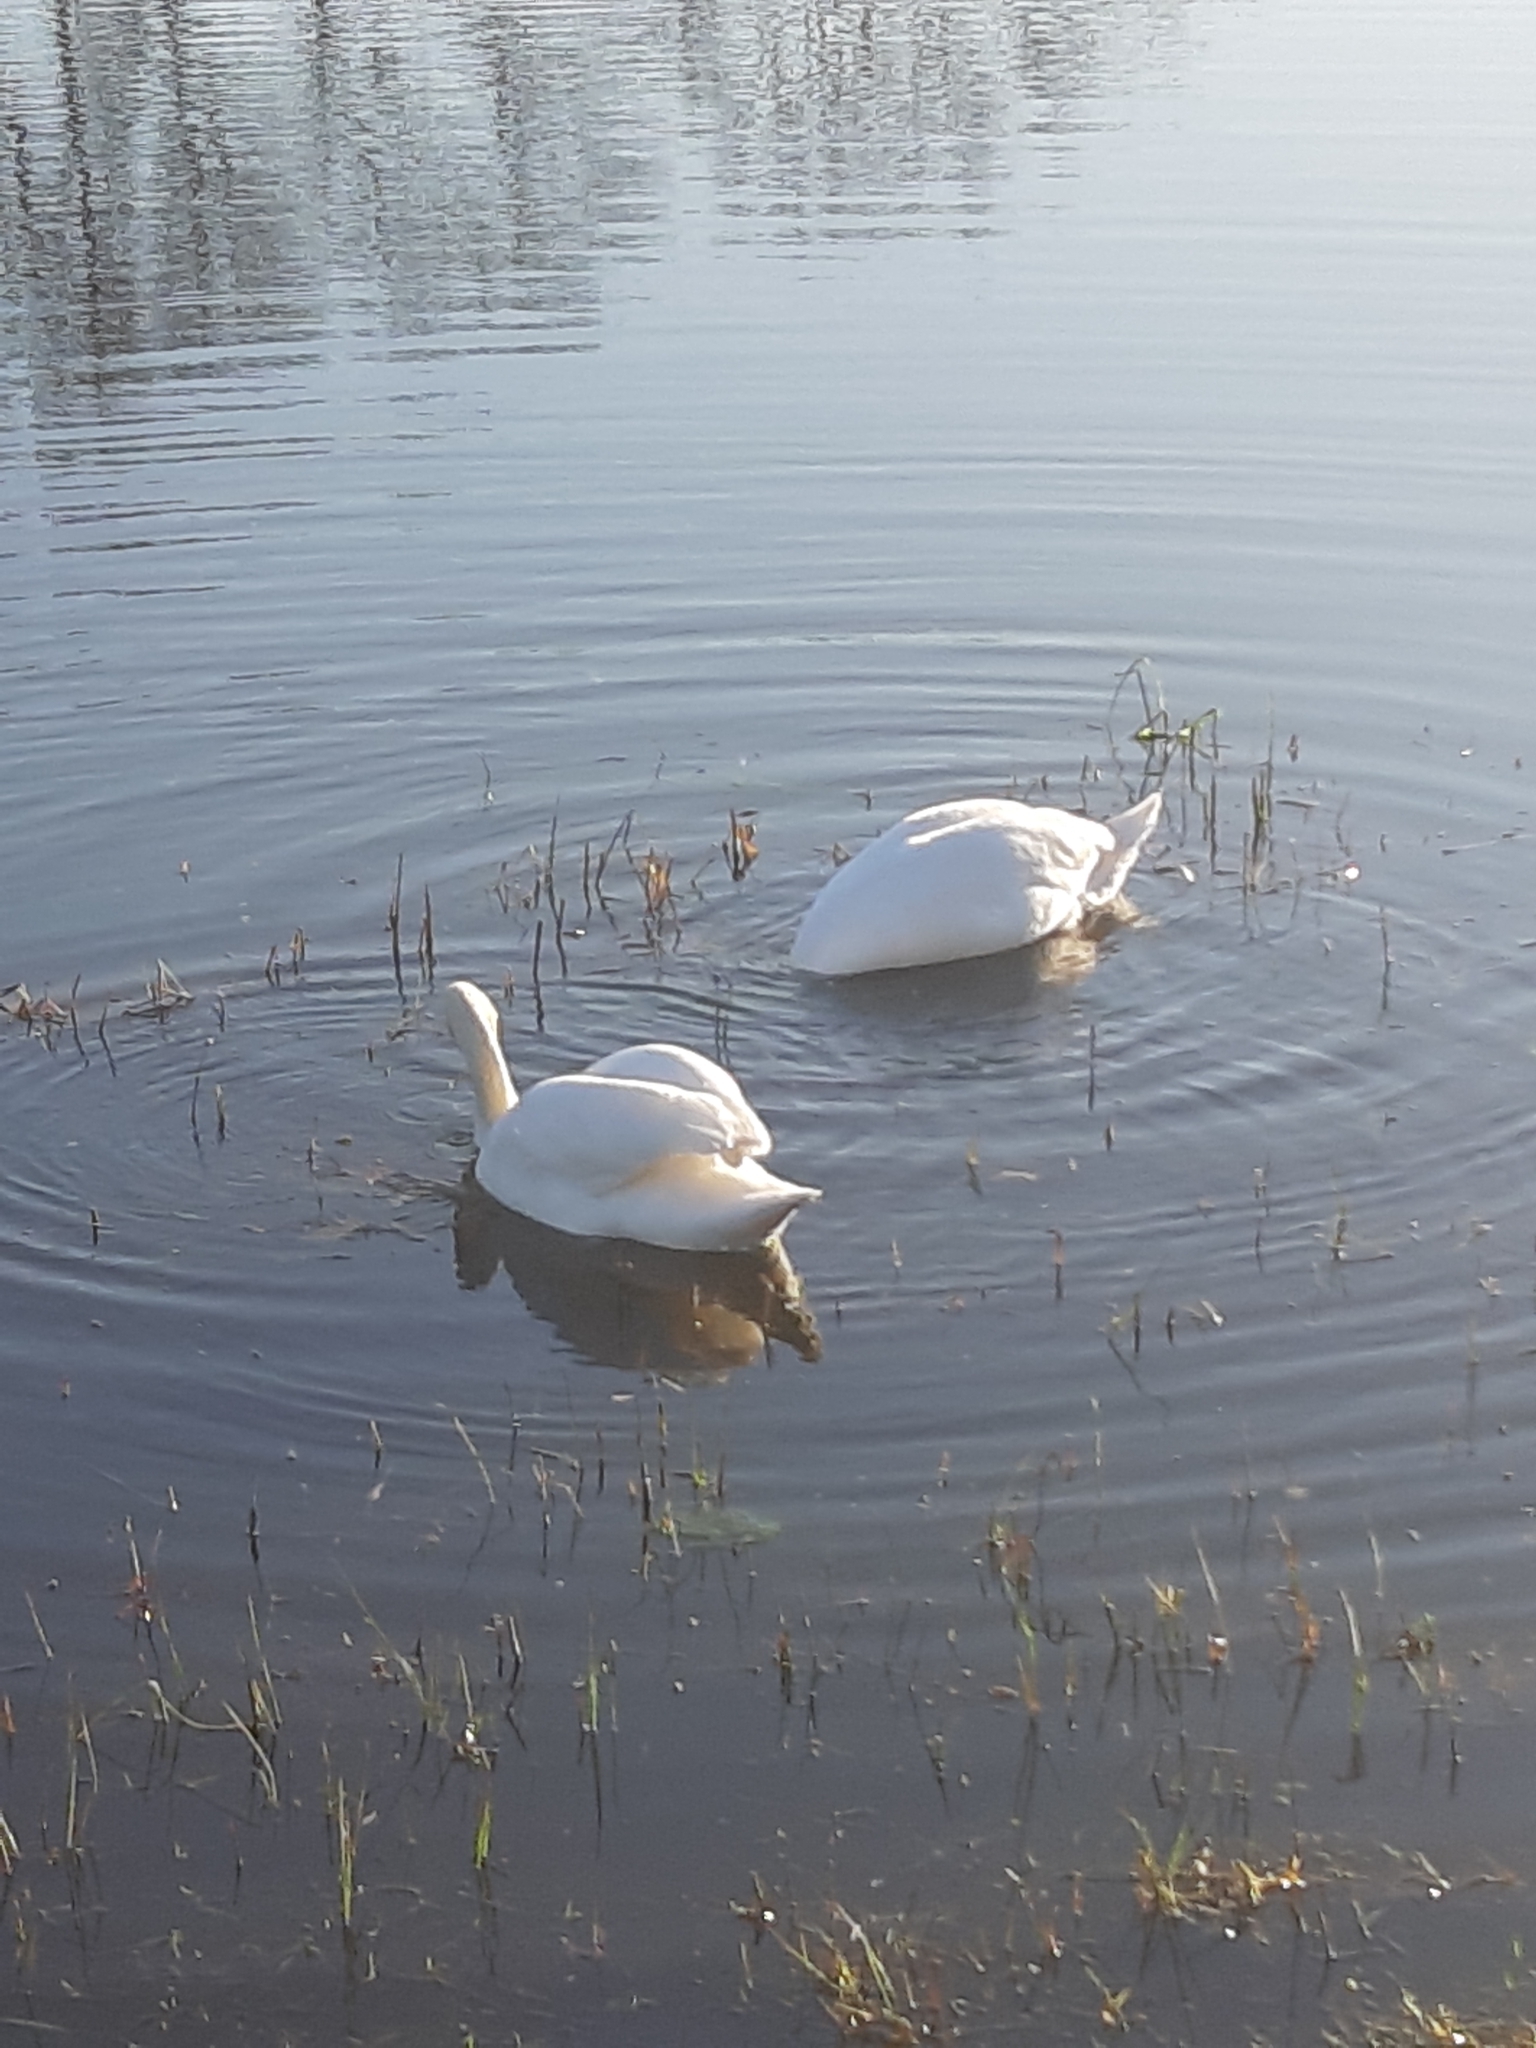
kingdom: Animalia
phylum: Chordata
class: Aves
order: Anseriformes
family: Anatidae
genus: Cygnus
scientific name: Cygnus olor
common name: Mute swan
